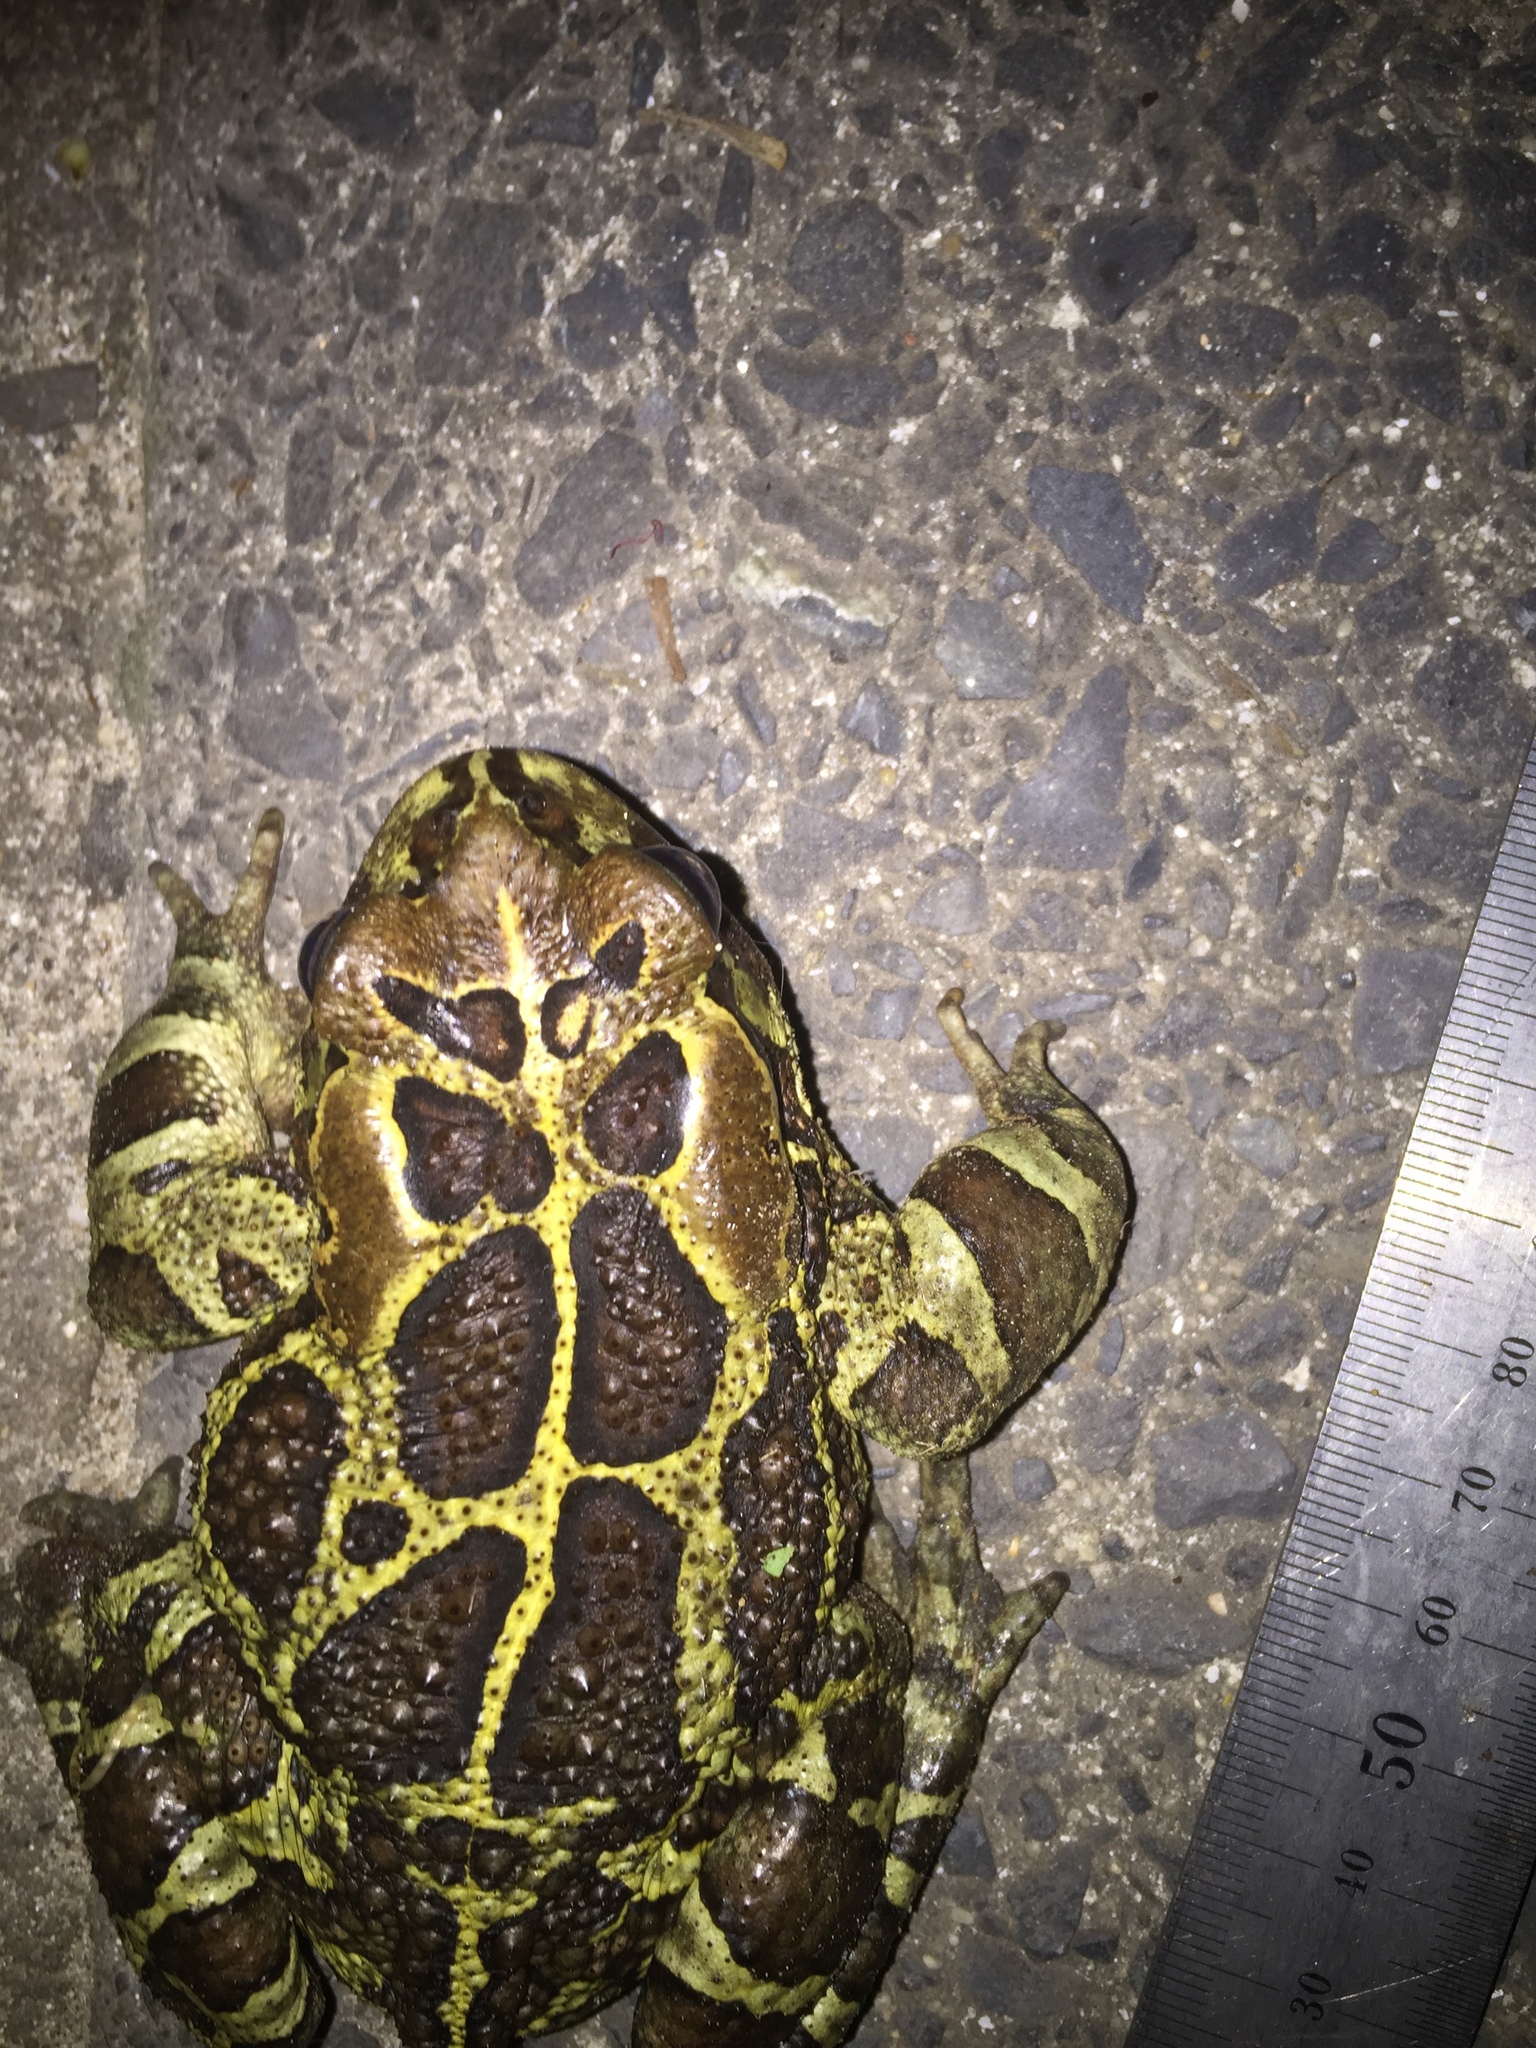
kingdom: Animalia
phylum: Chordata
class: Amphibia
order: Anura
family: Bufonidae
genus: Sclerophrys
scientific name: Sclerophrys pantherina
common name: Panther toad
